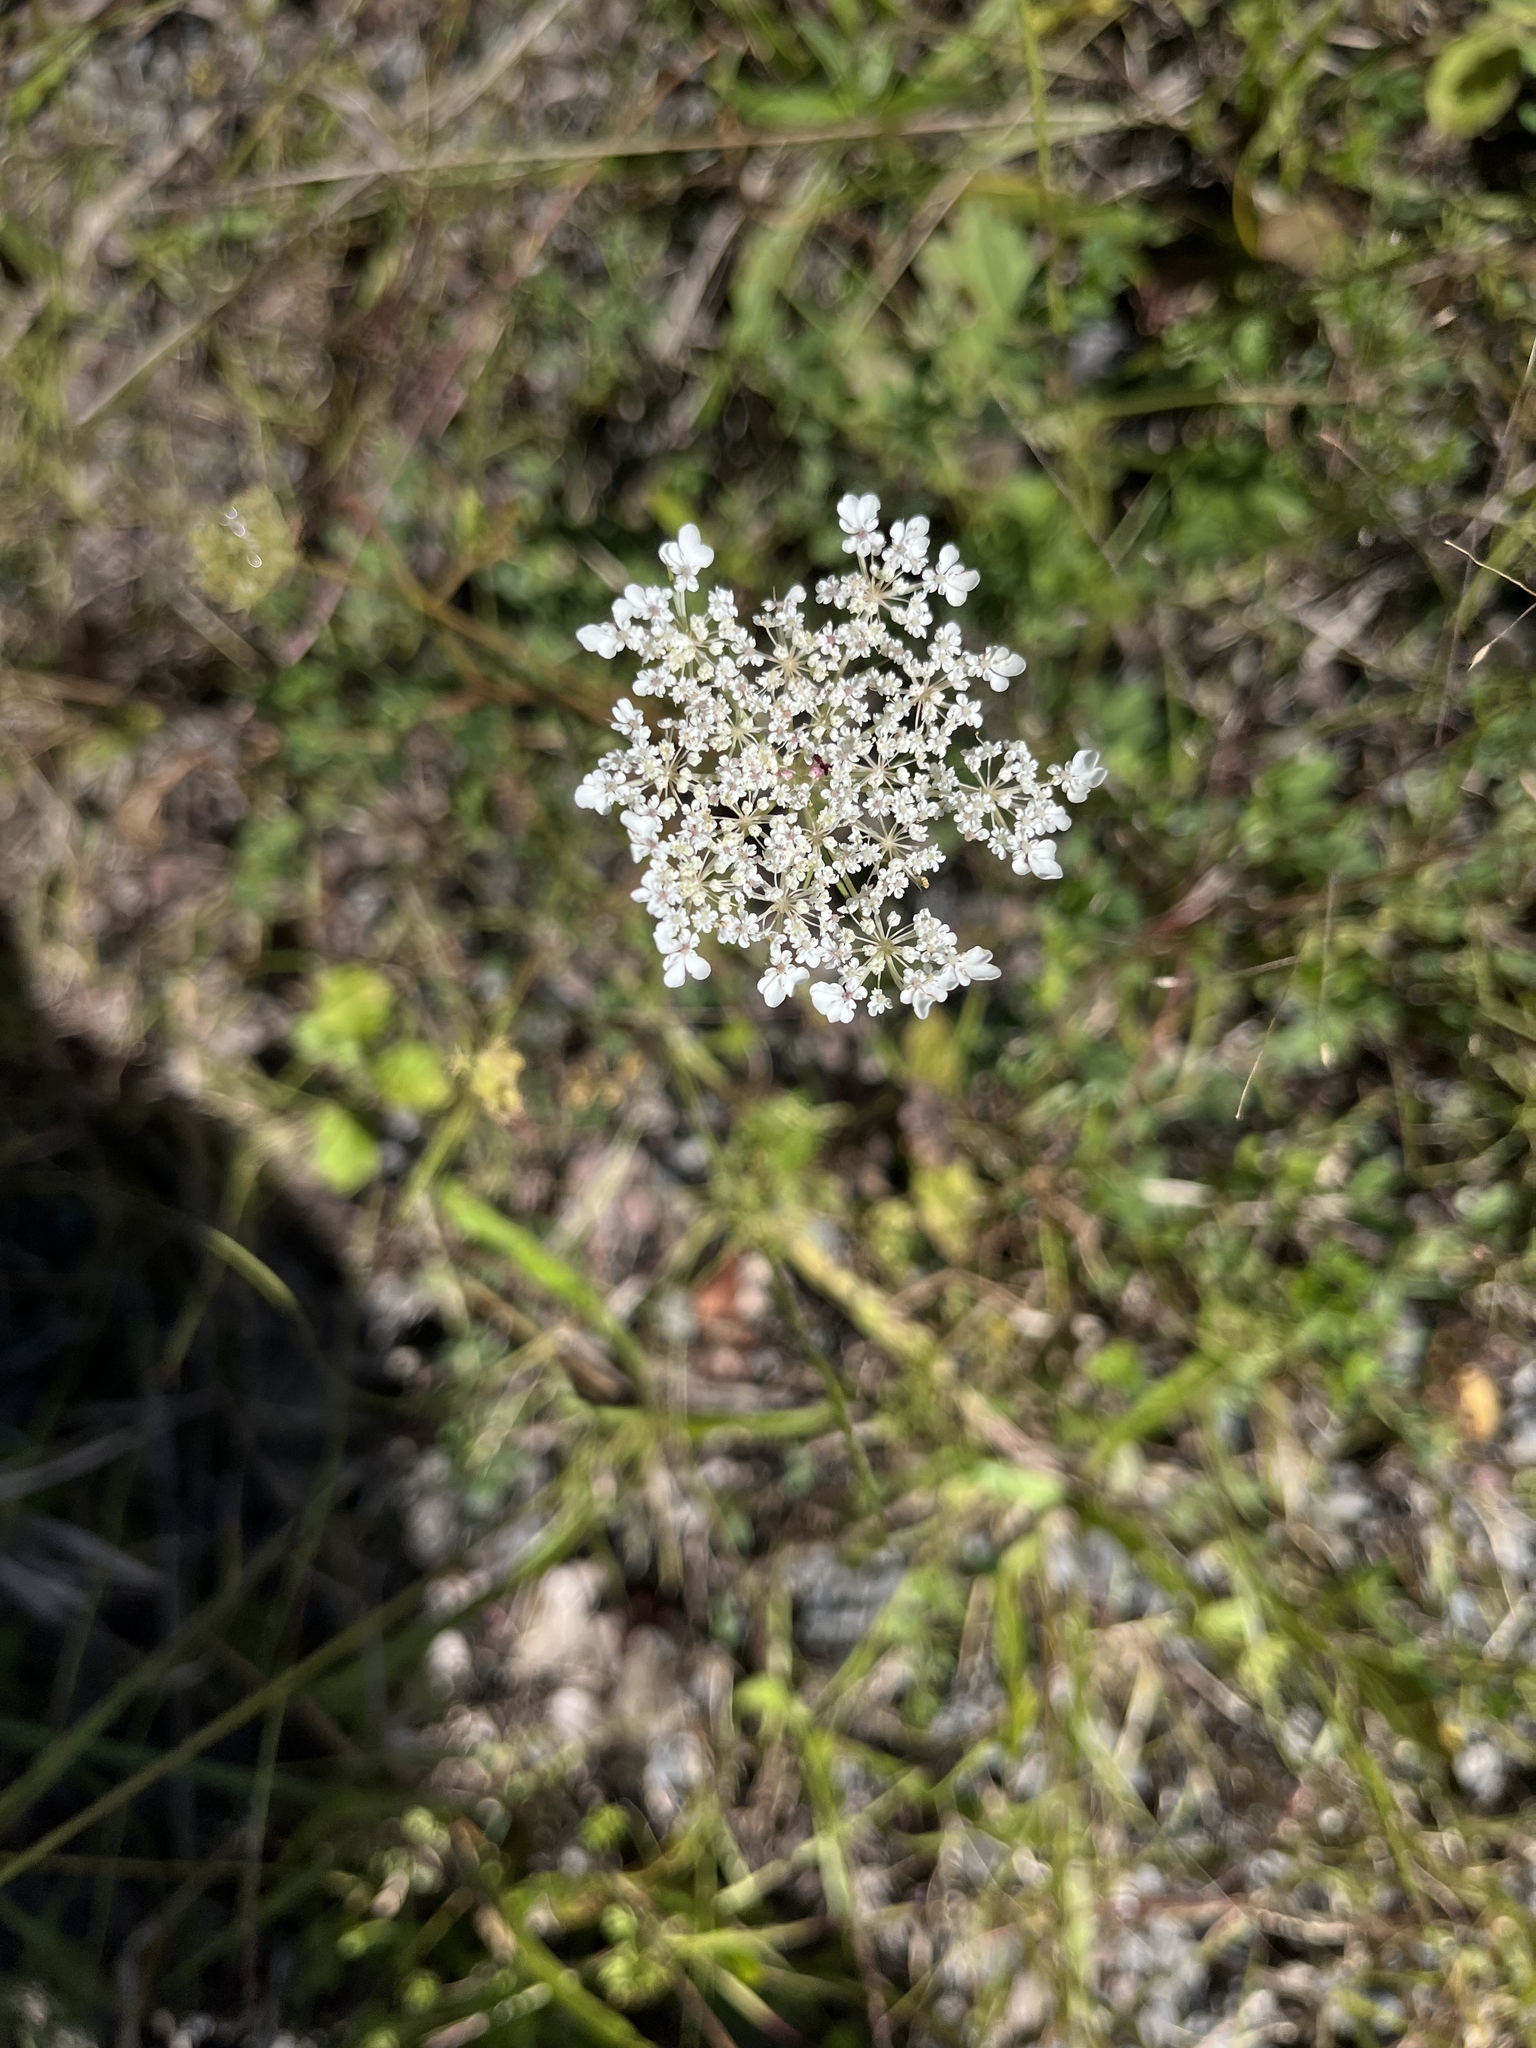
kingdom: Plantae
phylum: Tracheophyta
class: Magnoliopsida
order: Apiales
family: Apiaceae
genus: Daucus
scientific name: Daucus carota
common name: Wild carrot
